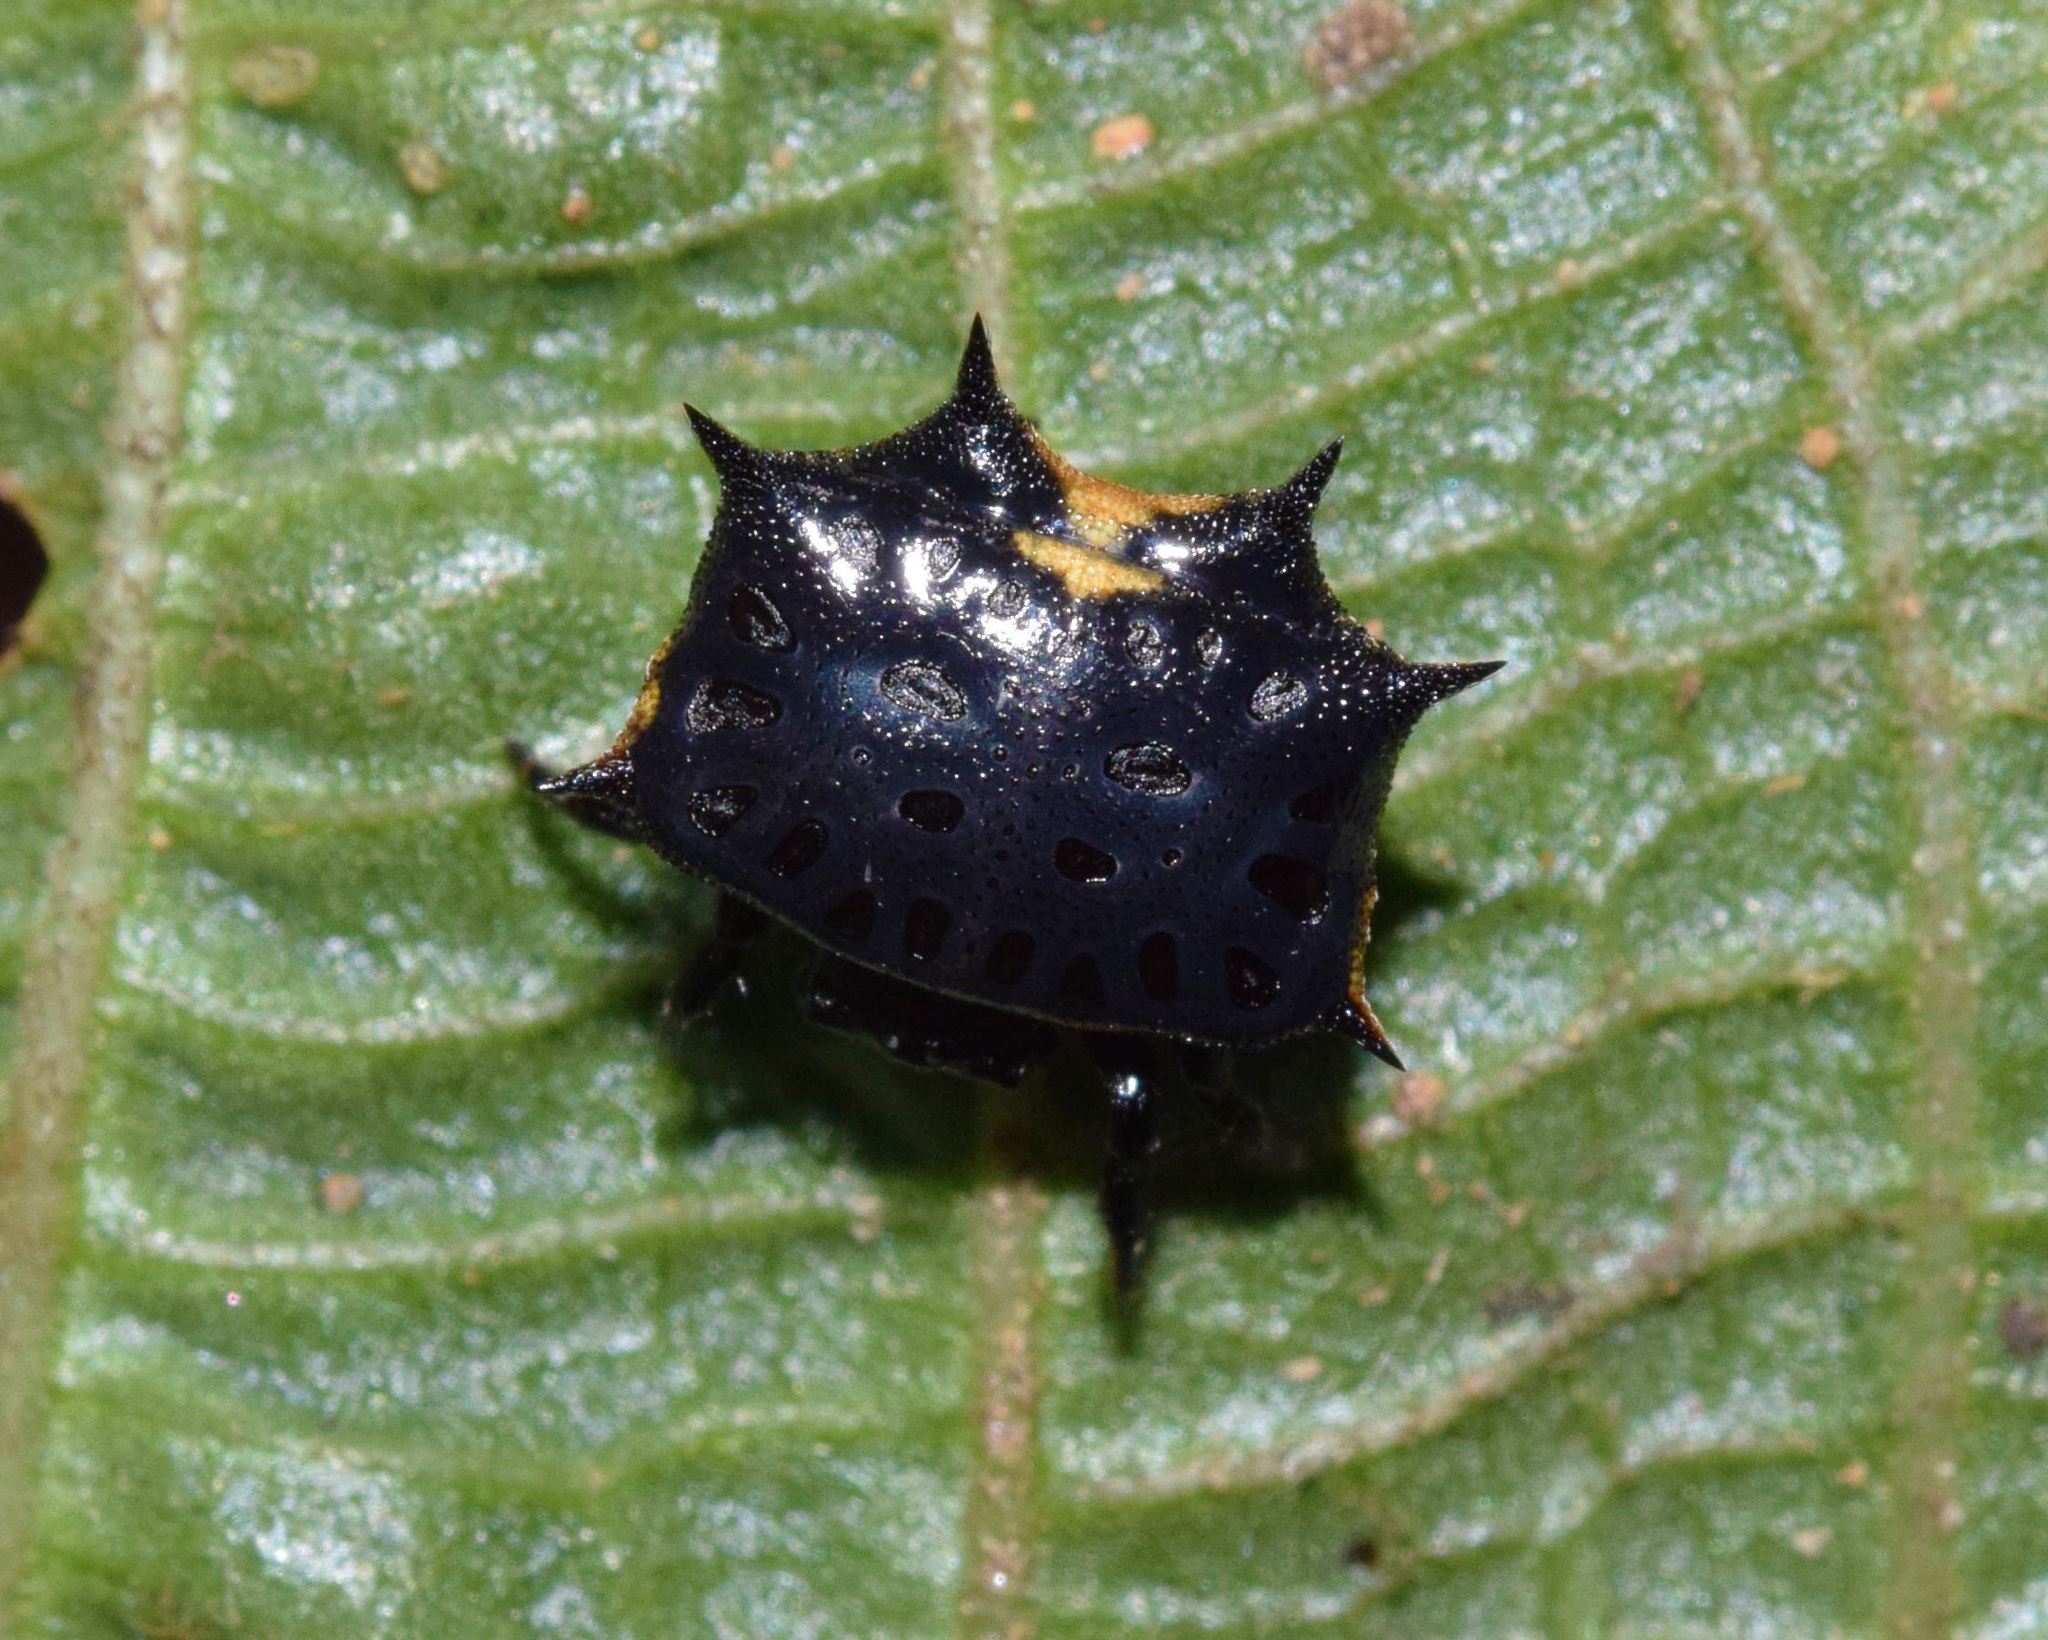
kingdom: Animalia
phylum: Arthropoda
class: Arachnida
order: Araneae
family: Araneidae
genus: Isoxya
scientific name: Isoxya tabulata
